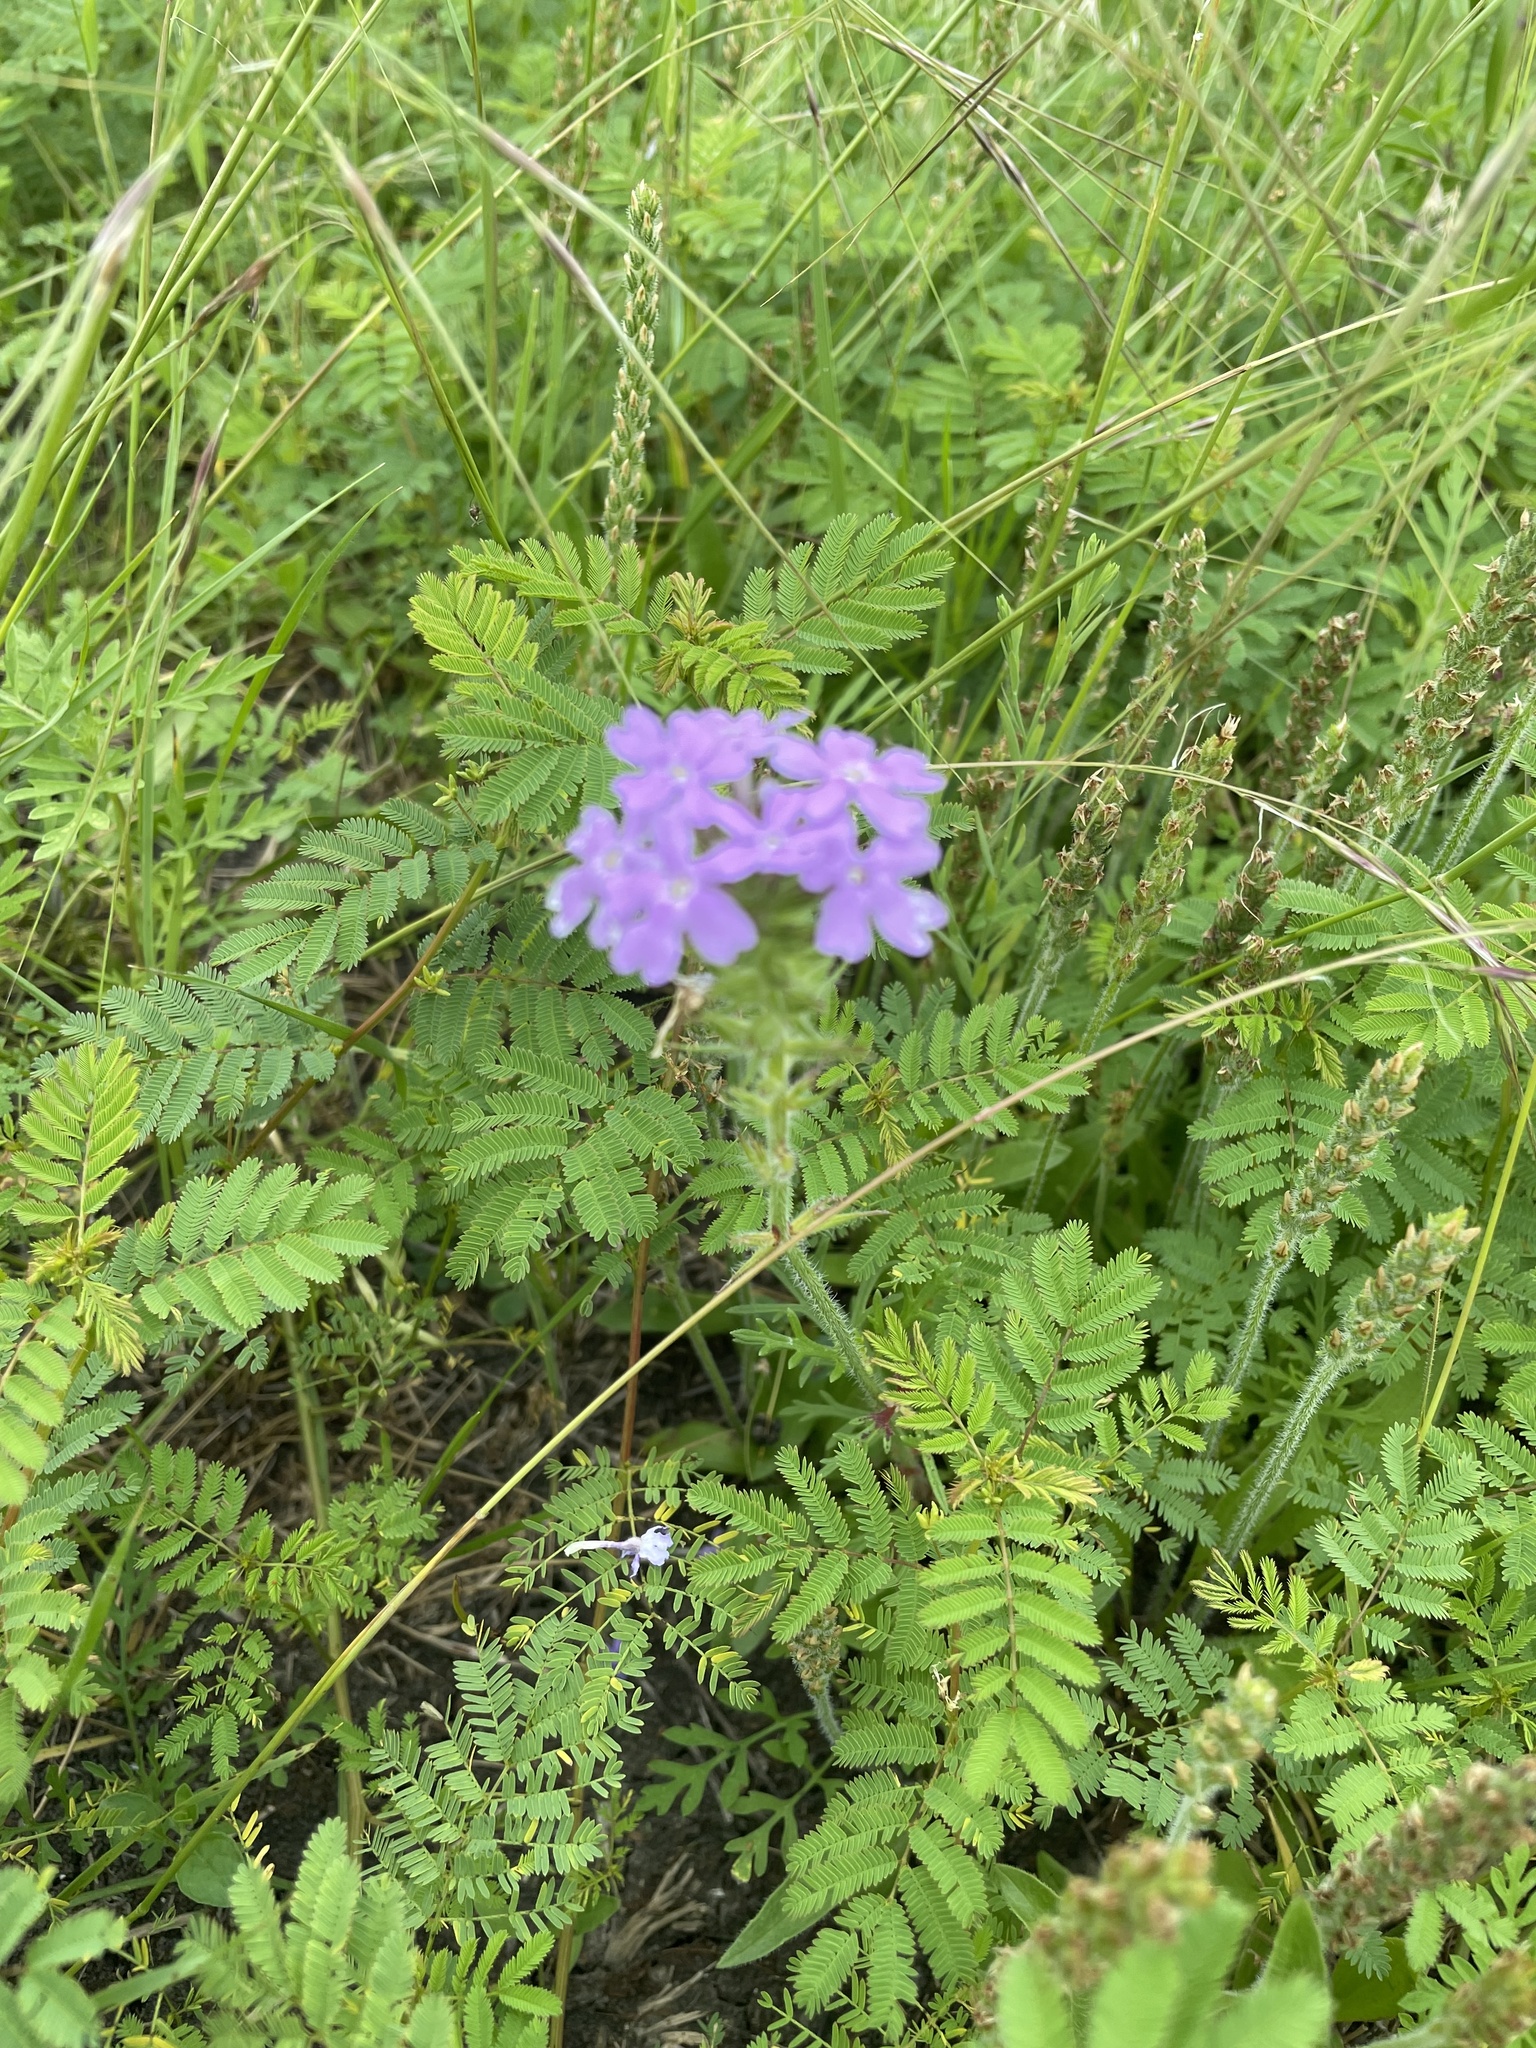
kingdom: Plantae
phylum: Tracheophyta
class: Magnoliopsida
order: Lamiales
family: Verbenaceae
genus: Verbena
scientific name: Verbena bipinnatifida
